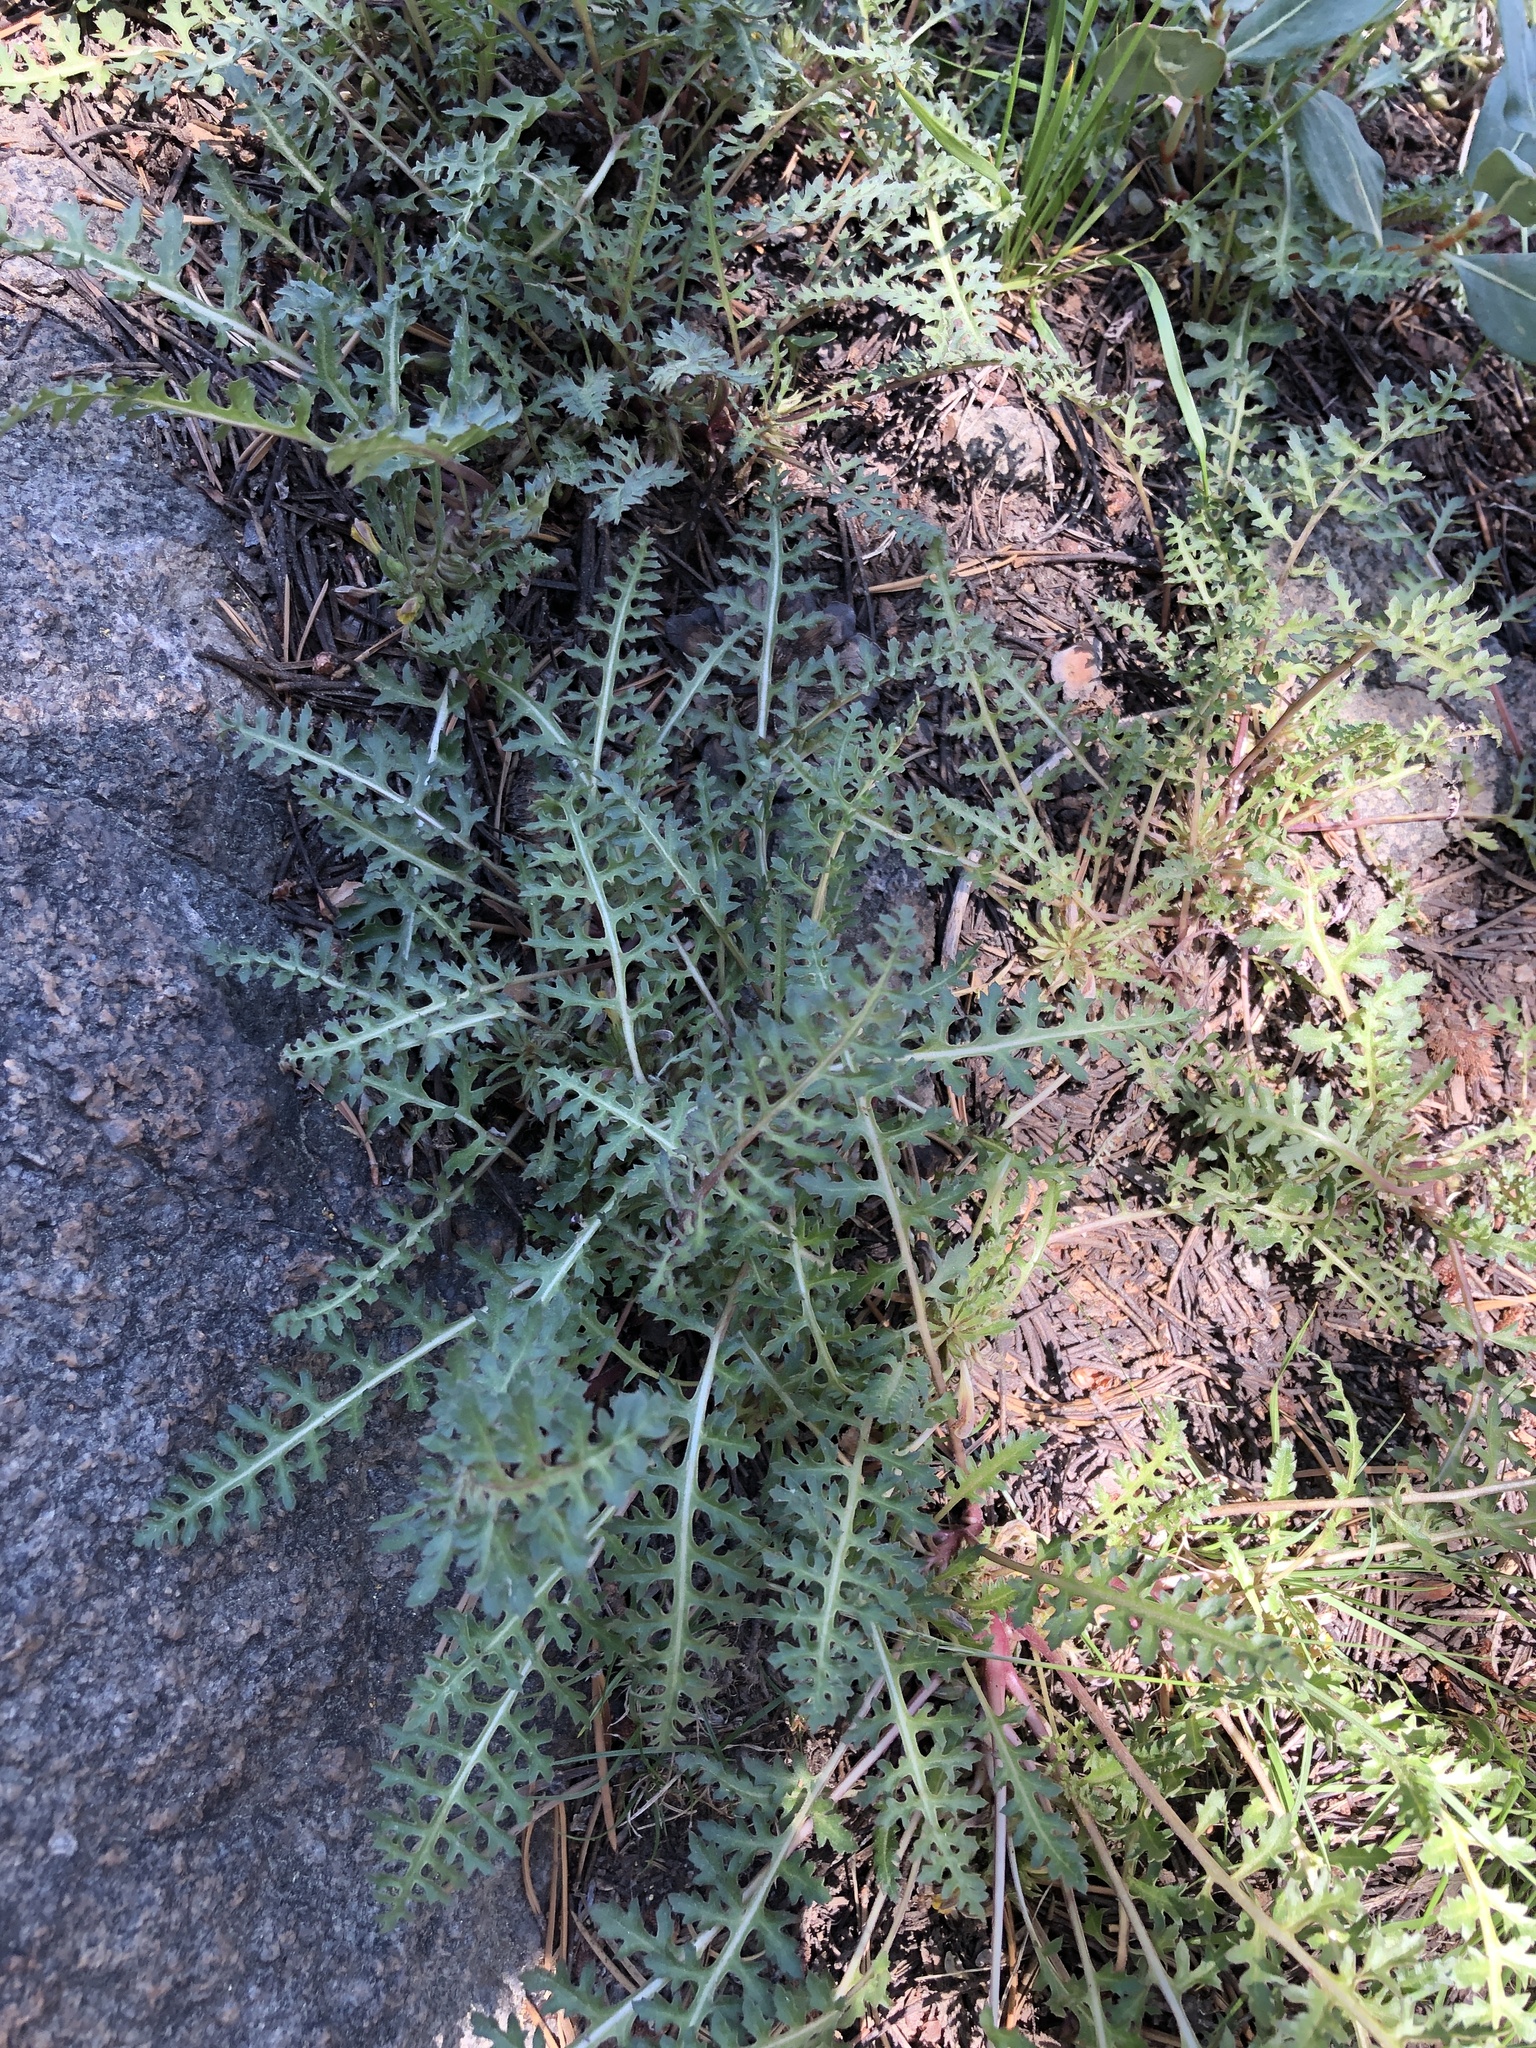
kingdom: Plantae
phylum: Tracheophyta
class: Magnoliopsida
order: Lamiales
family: Orobanchaceae
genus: Pedicularis
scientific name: Pedicularis semibarbata
